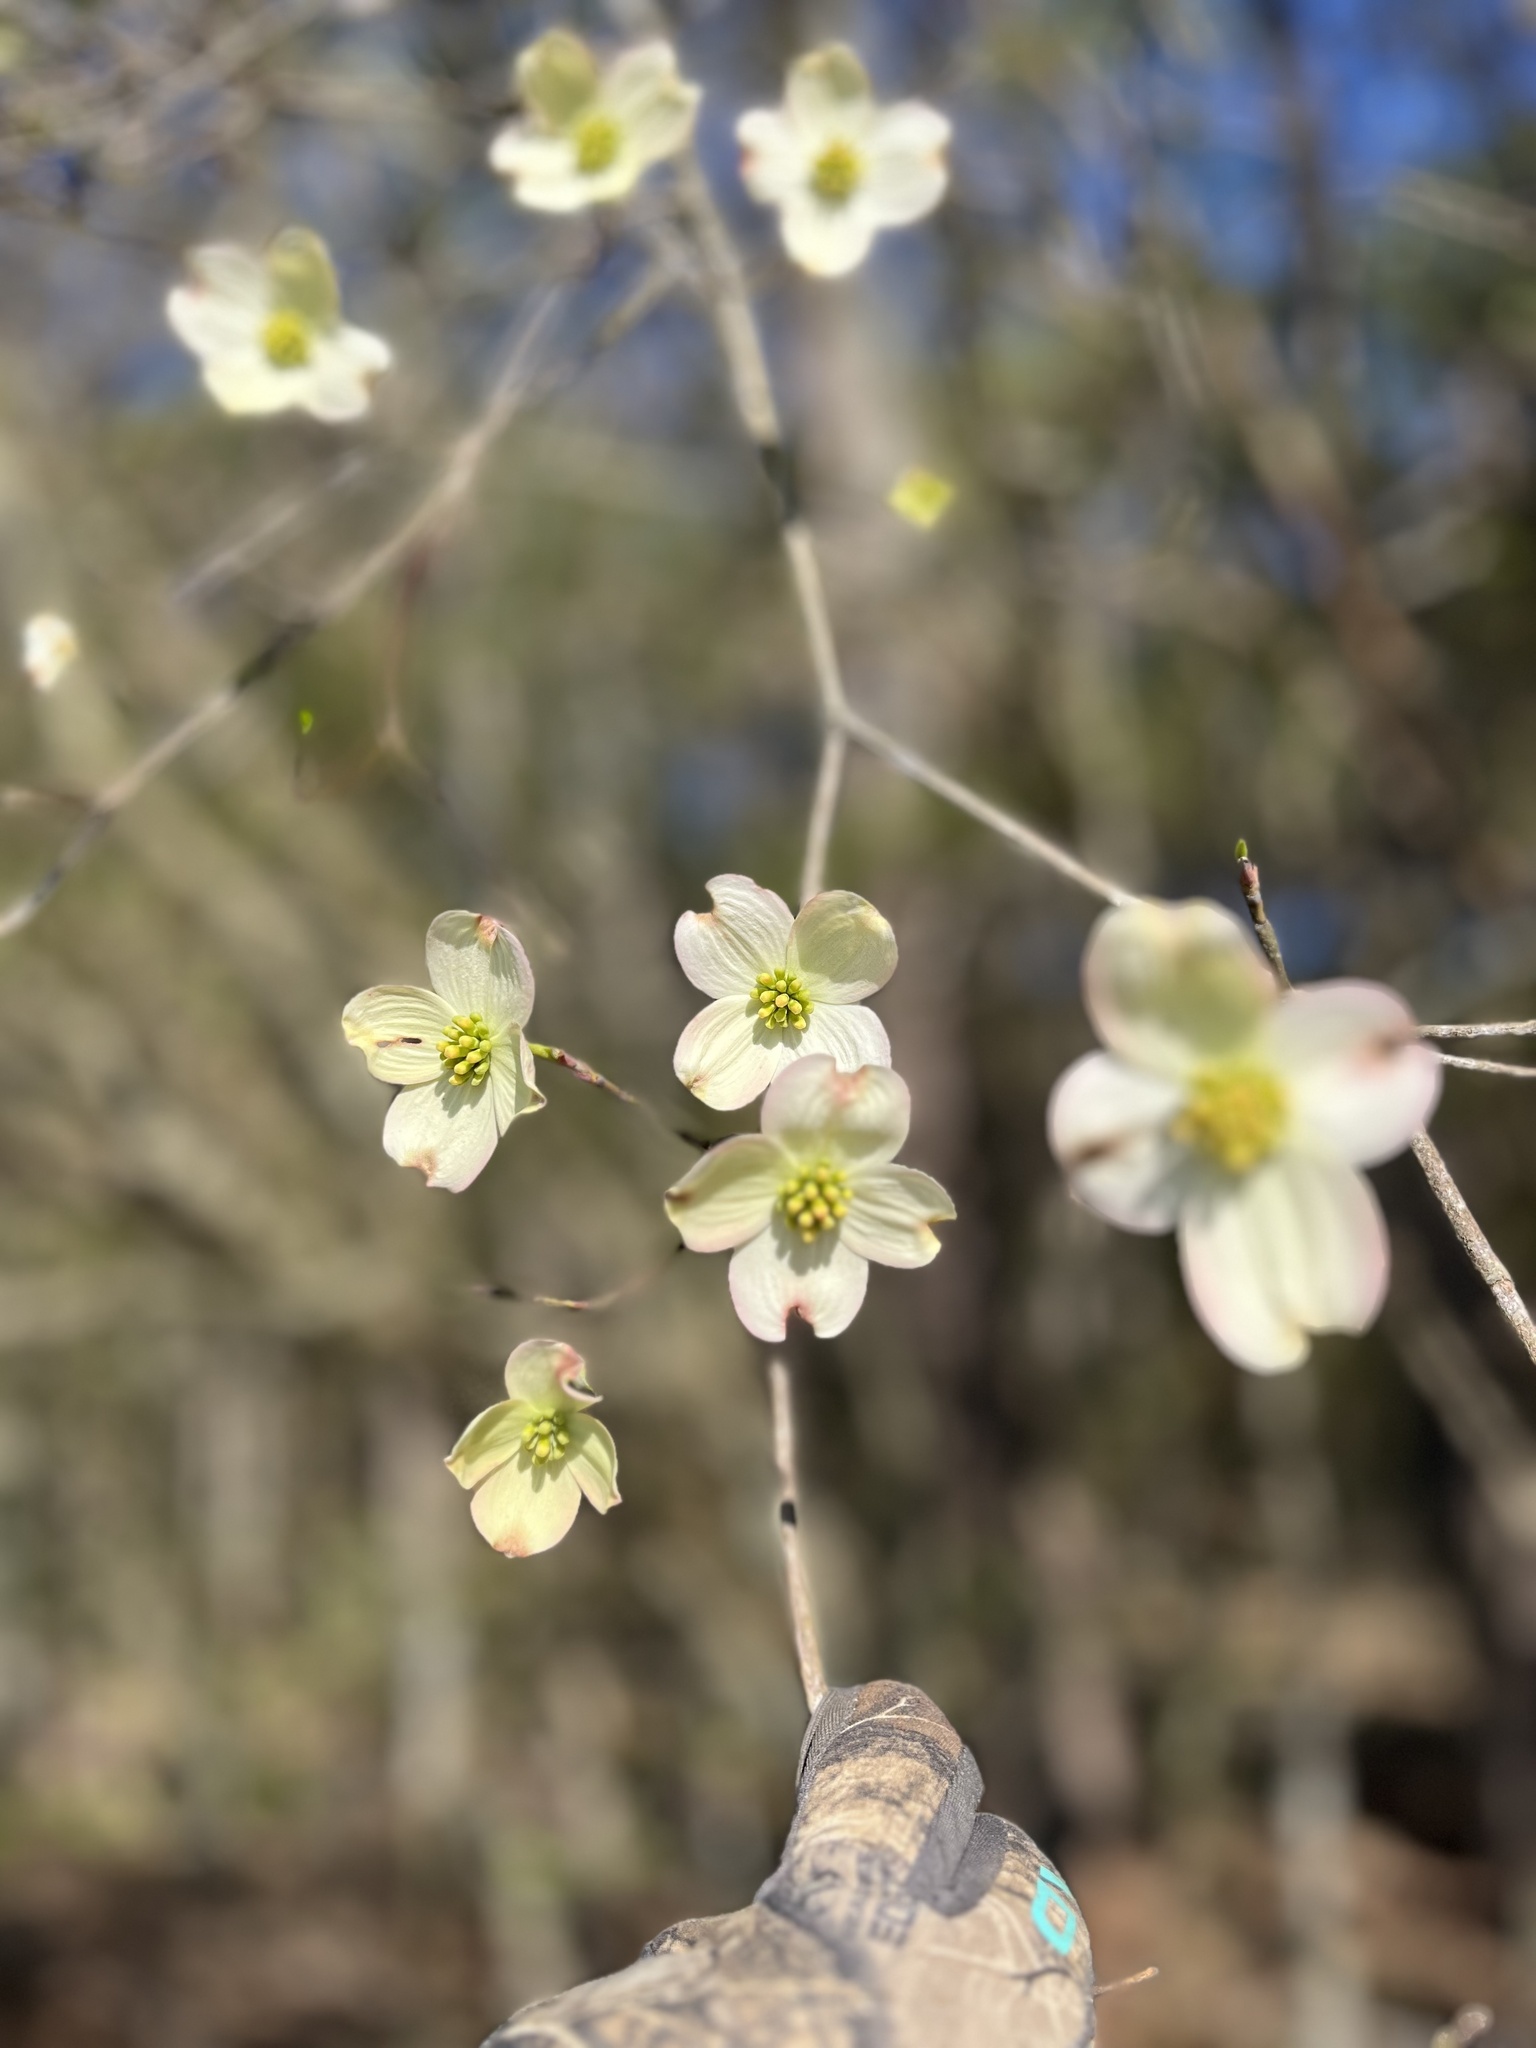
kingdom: Plantae
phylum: Tracheophyta
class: Magnoliopsida
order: Cornales
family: Cornaceae
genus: Cornus
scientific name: Cornus florida
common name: Flowering dogwood
